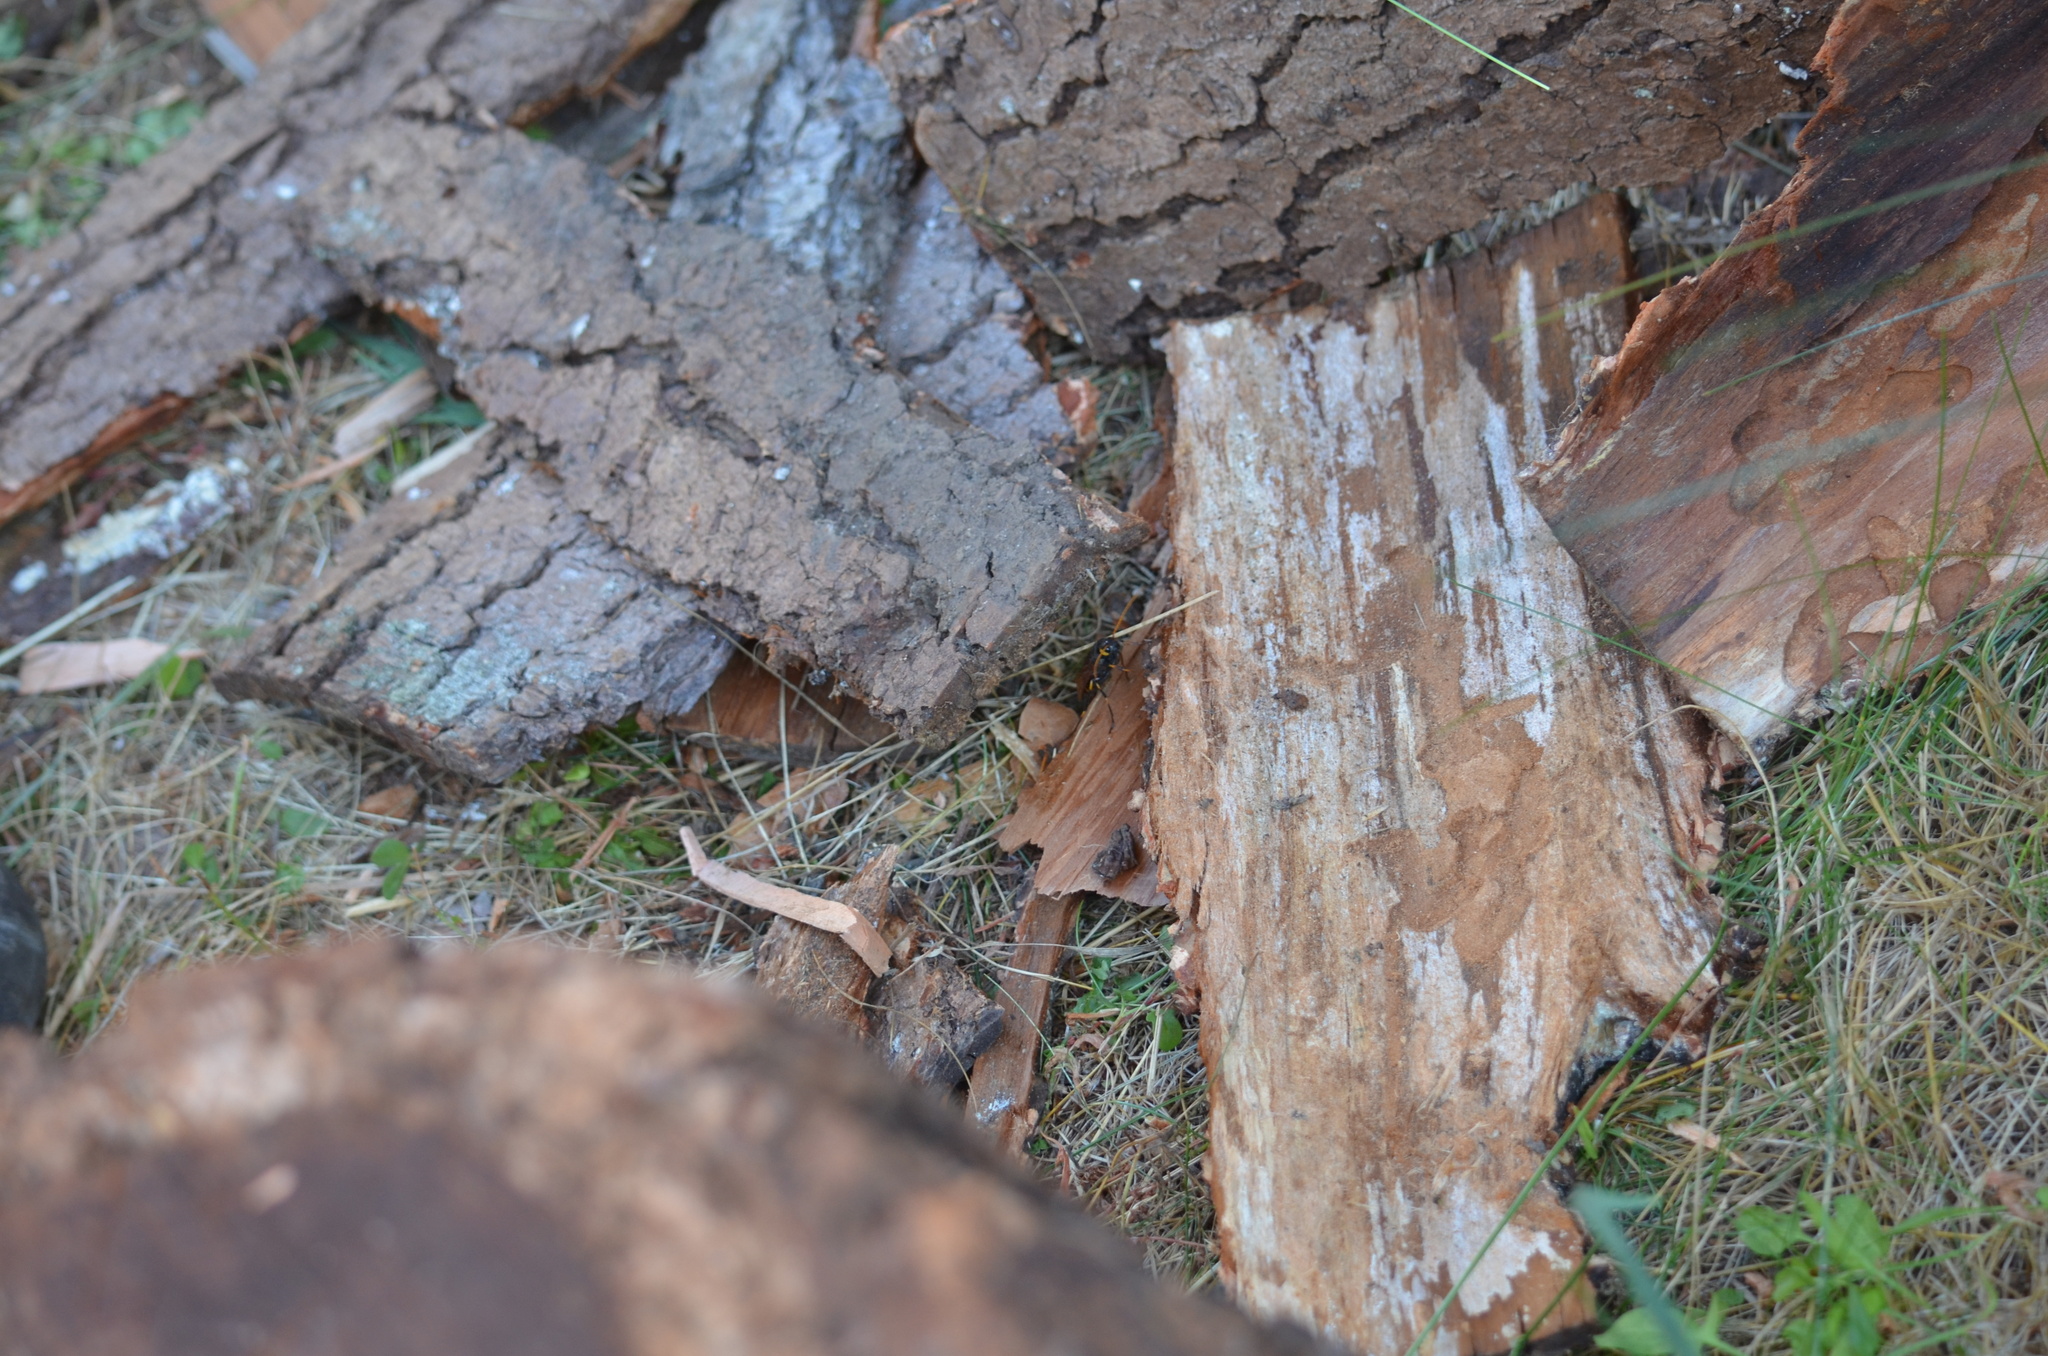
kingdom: Animalia
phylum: Arthropoda
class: Insecta
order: Hymenoptera
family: Siricidae
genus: Urocerus
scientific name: Urocerus californicus
